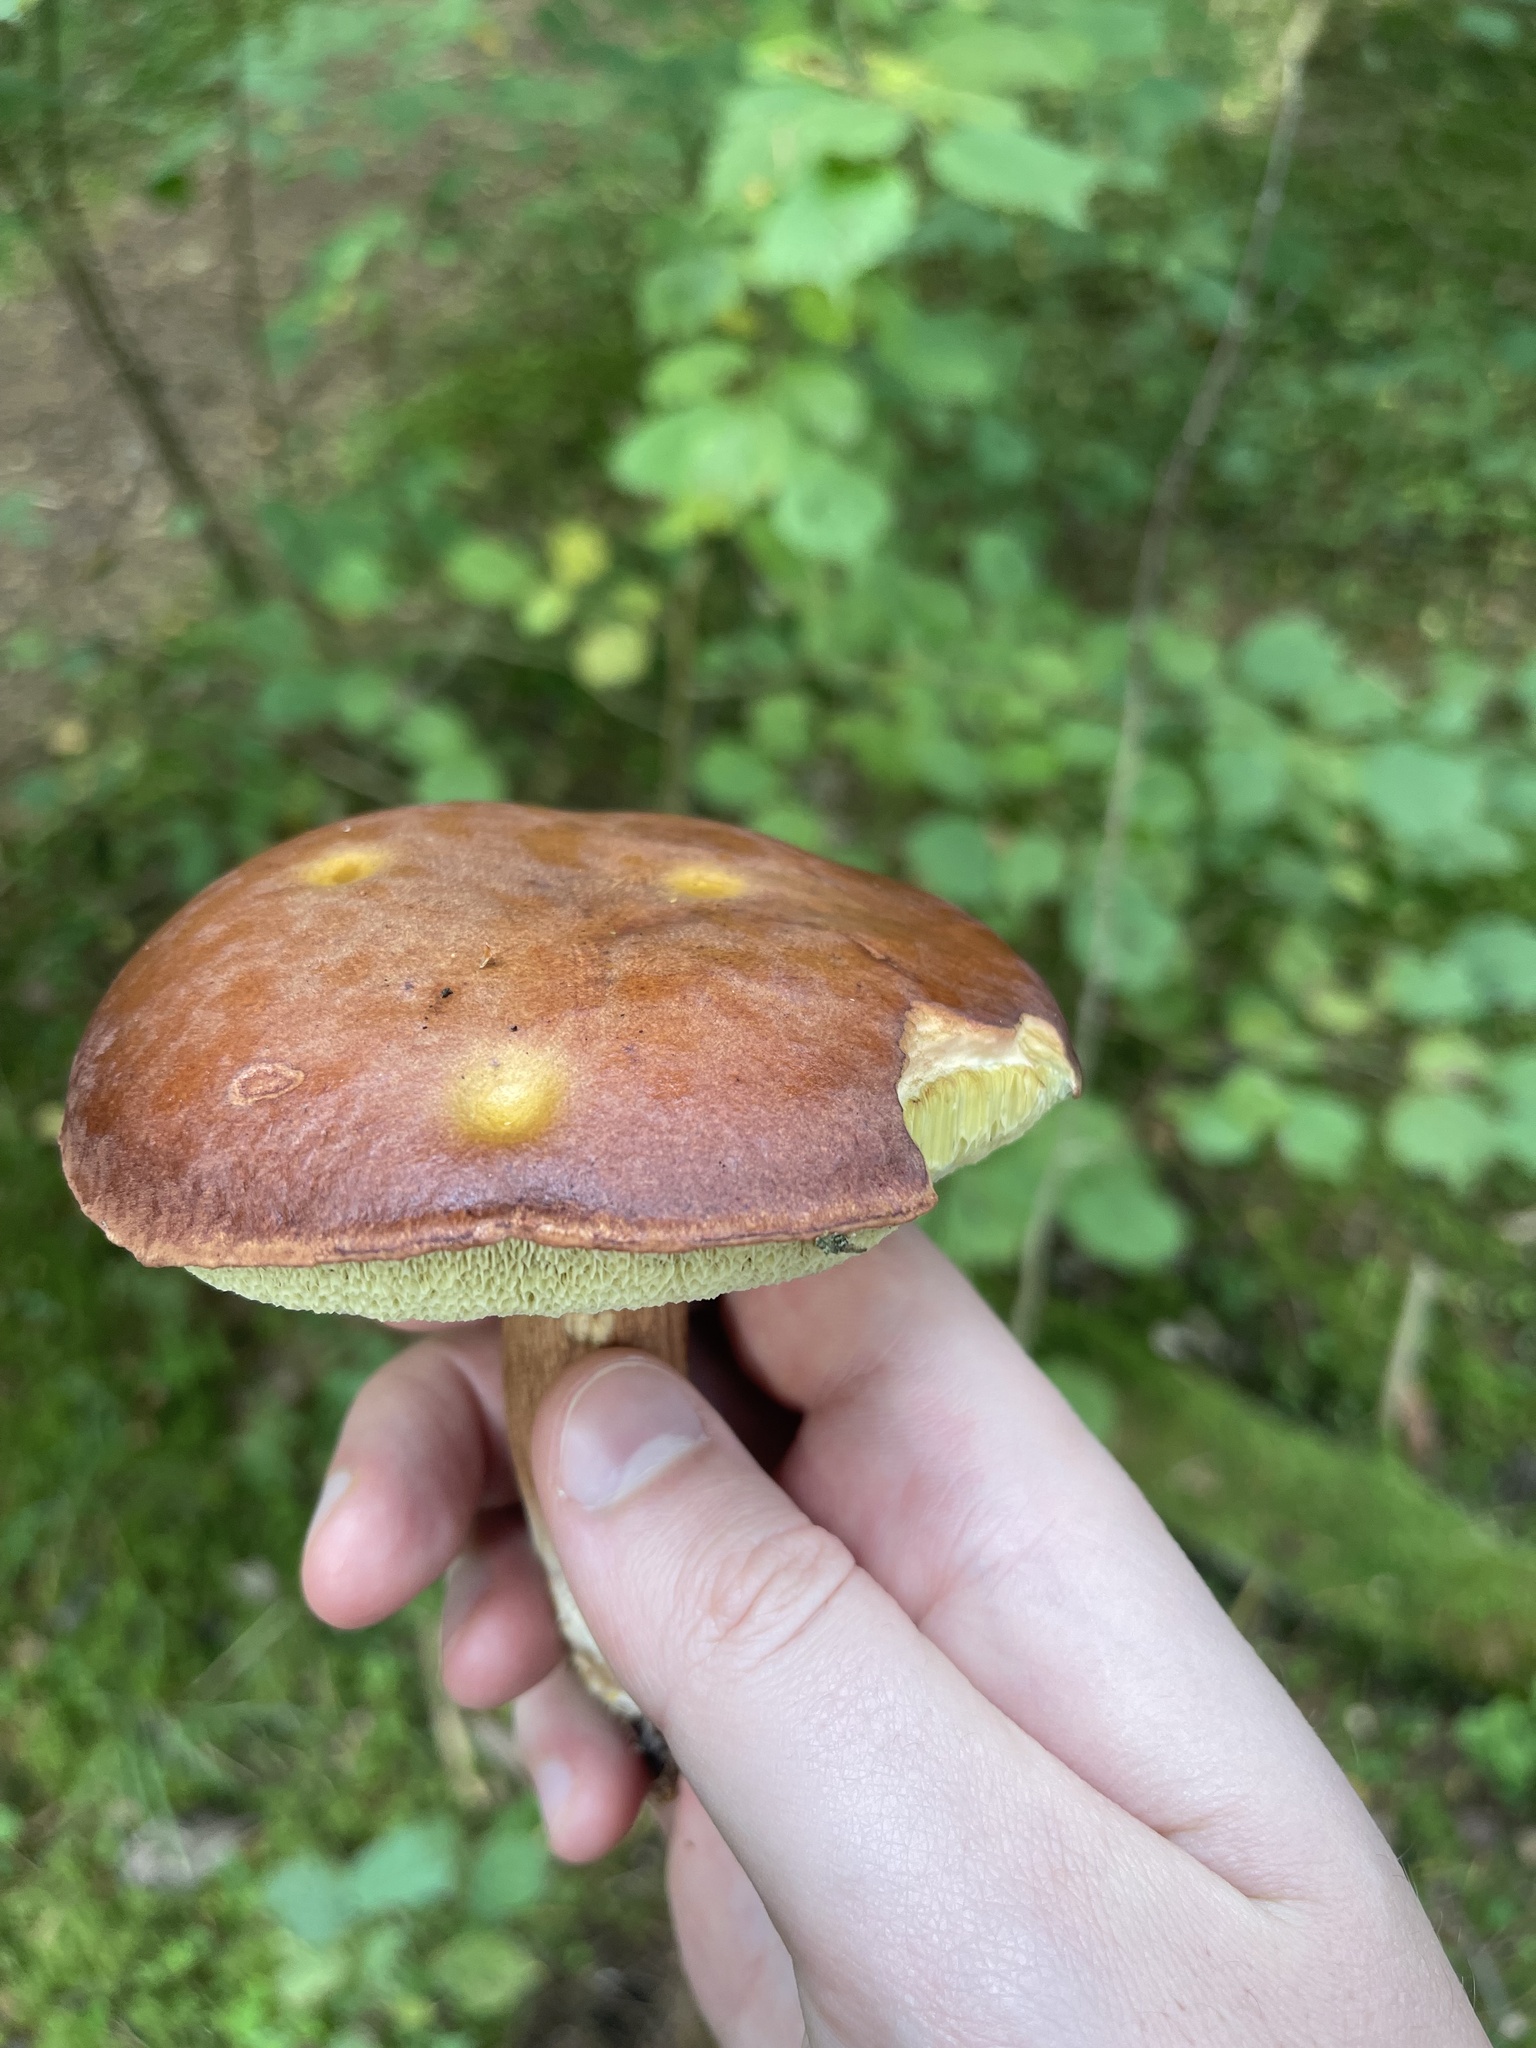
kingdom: Fungi
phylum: Basidiomycota
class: Agaricomycetes
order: Boletales
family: Boletaceae
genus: Imleria
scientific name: Imleria badia
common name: Bay bolete
